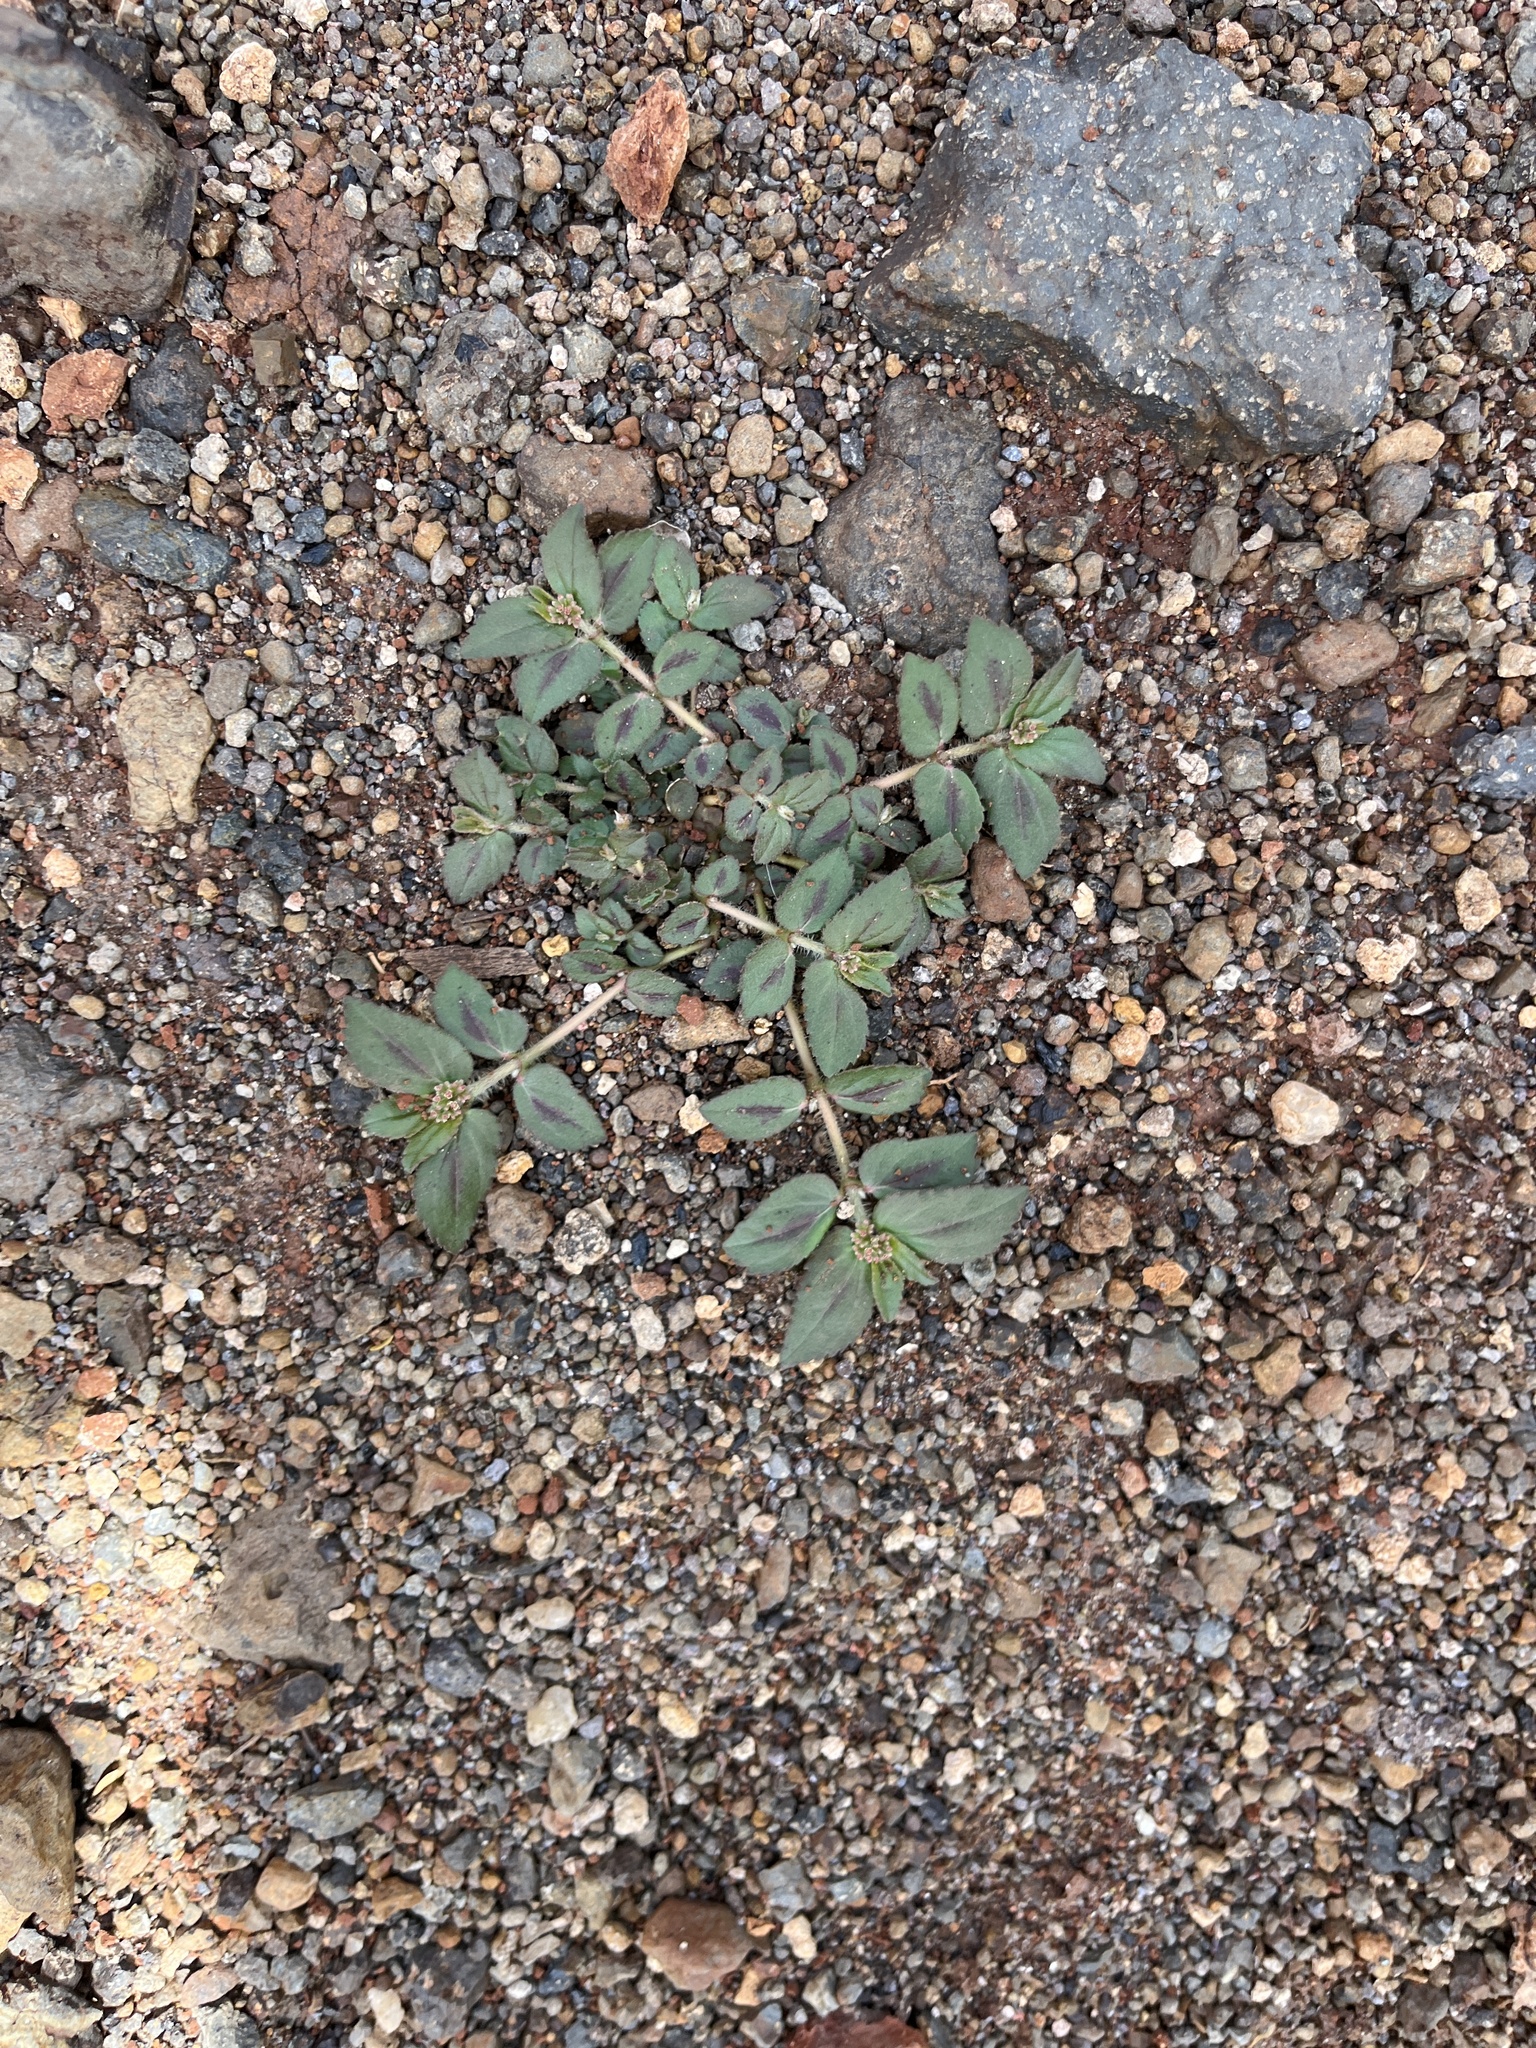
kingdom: Plantae
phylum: Tracheophyta
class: Magnoliopsida
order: Malpighiales
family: Euphorbiaceae
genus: Euphorbia
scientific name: Euphorbia hirta
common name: Pillpod sandmat
